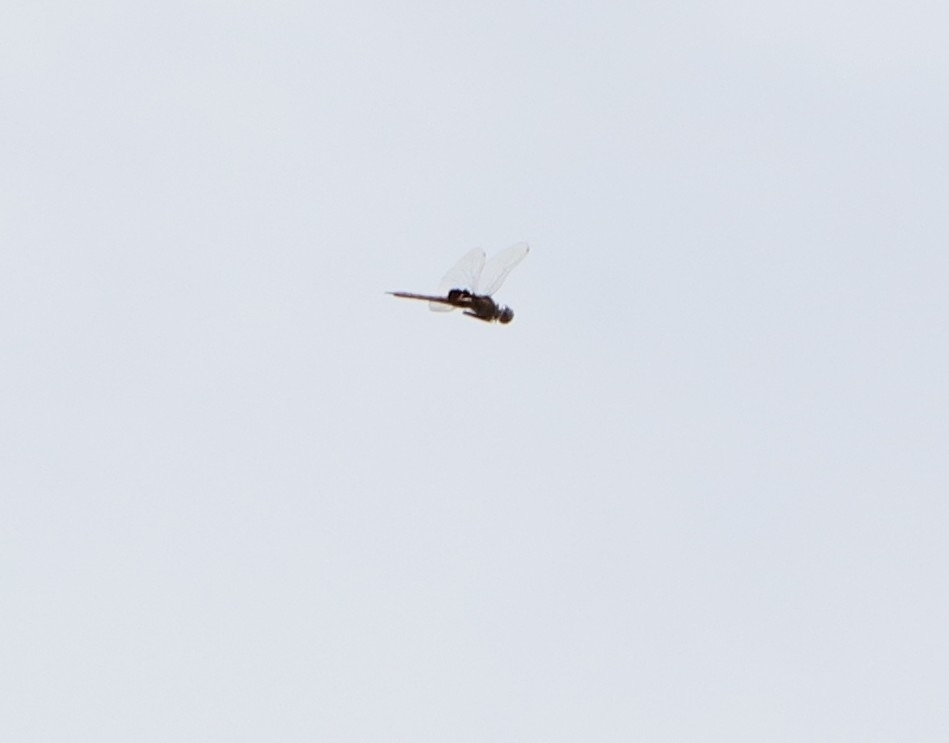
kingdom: Animalia
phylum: Arthropoda
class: Insecta
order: Odonata
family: Libellulidae
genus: Tramea
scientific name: Tramea limbata
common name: Ferruginous glider
